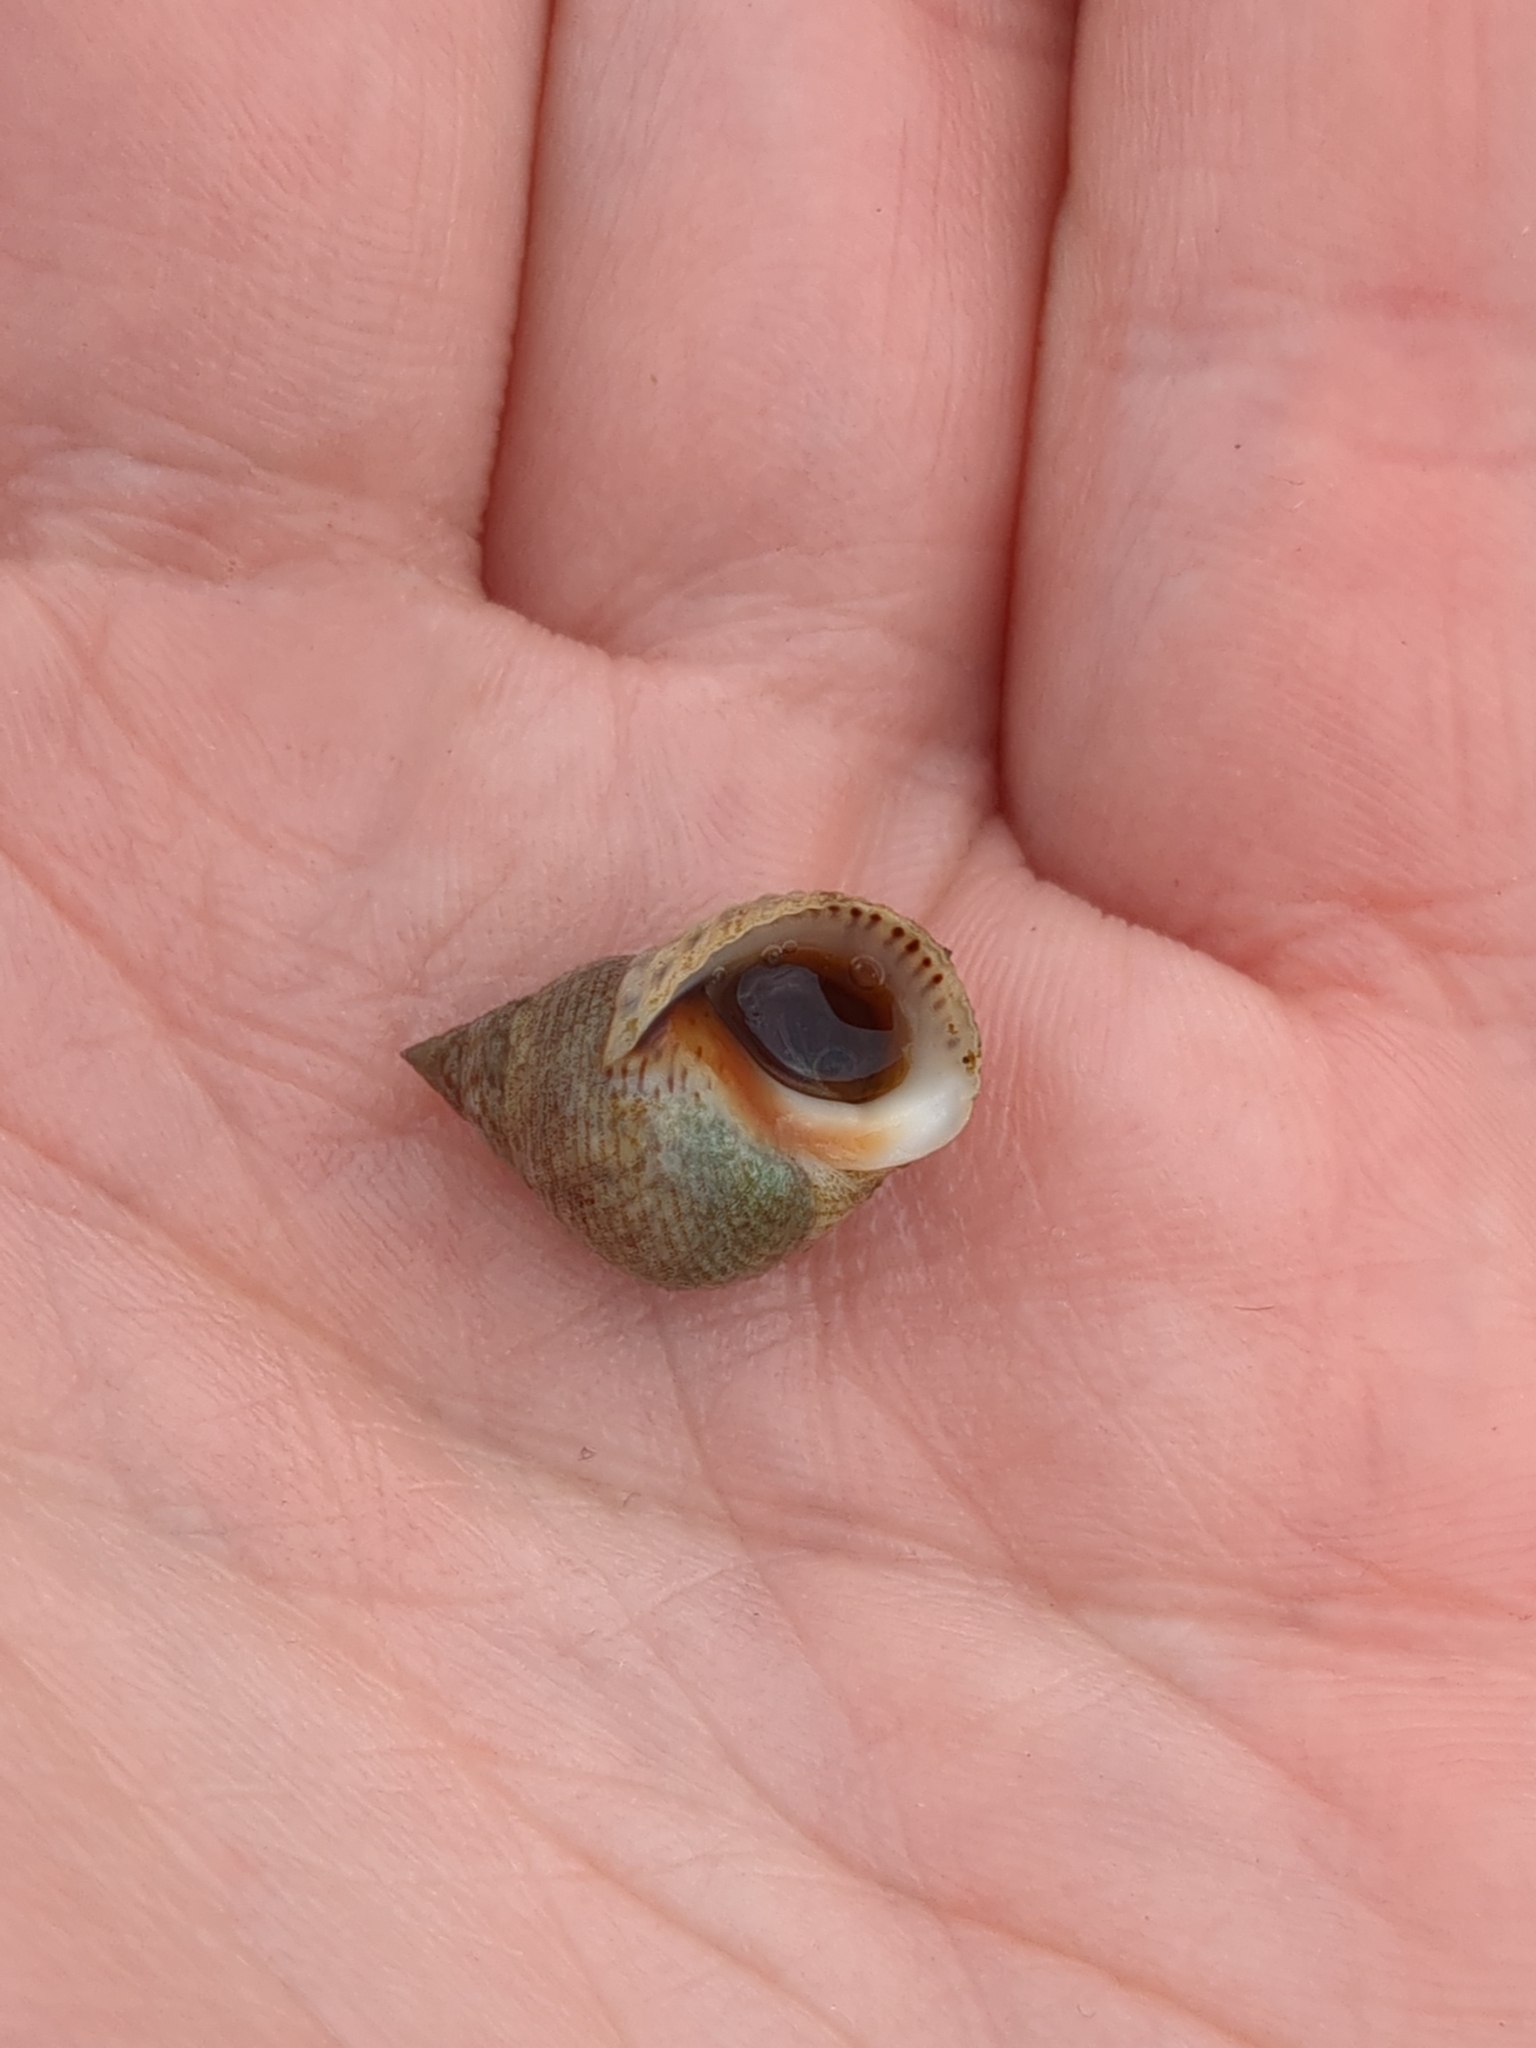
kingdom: Animalia
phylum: Mollusca
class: Gastropoda
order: Littorinimorpha
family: Littorinidae
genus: Littoraria
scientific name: Littoraria irrorata
